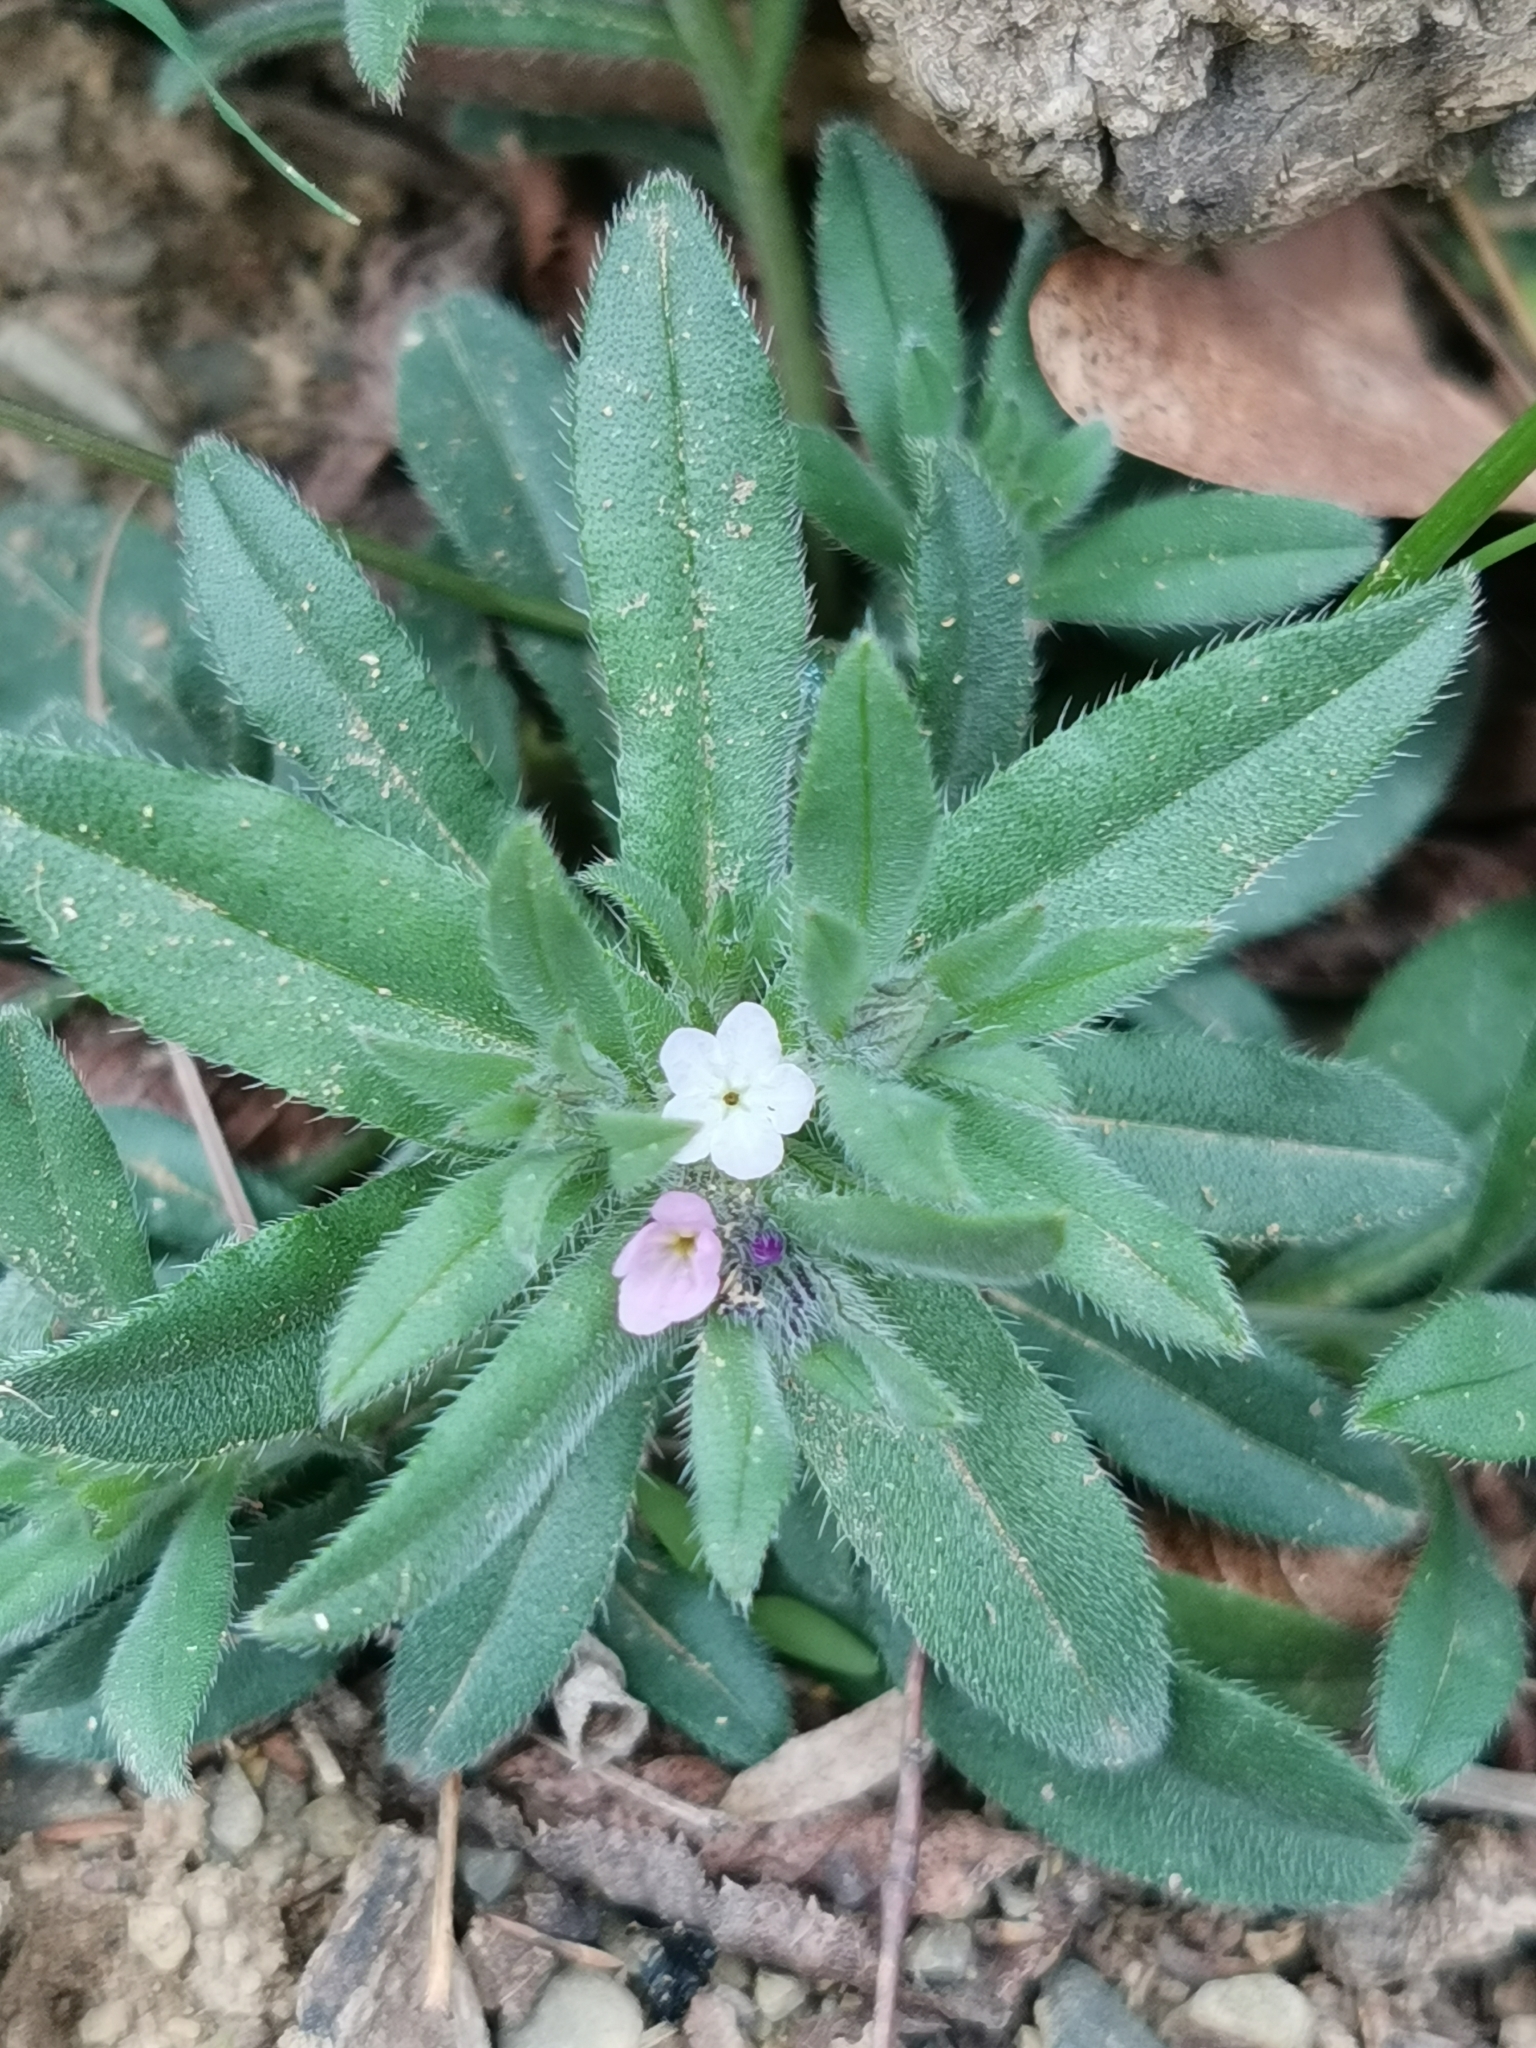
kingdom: Plantae
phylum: Tracheophyta
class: Magnoliopsida
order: Boraginales
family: Boraginaceae
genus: Buglossoides
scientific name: Buglossoides arvensis
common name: Corn gromwell
